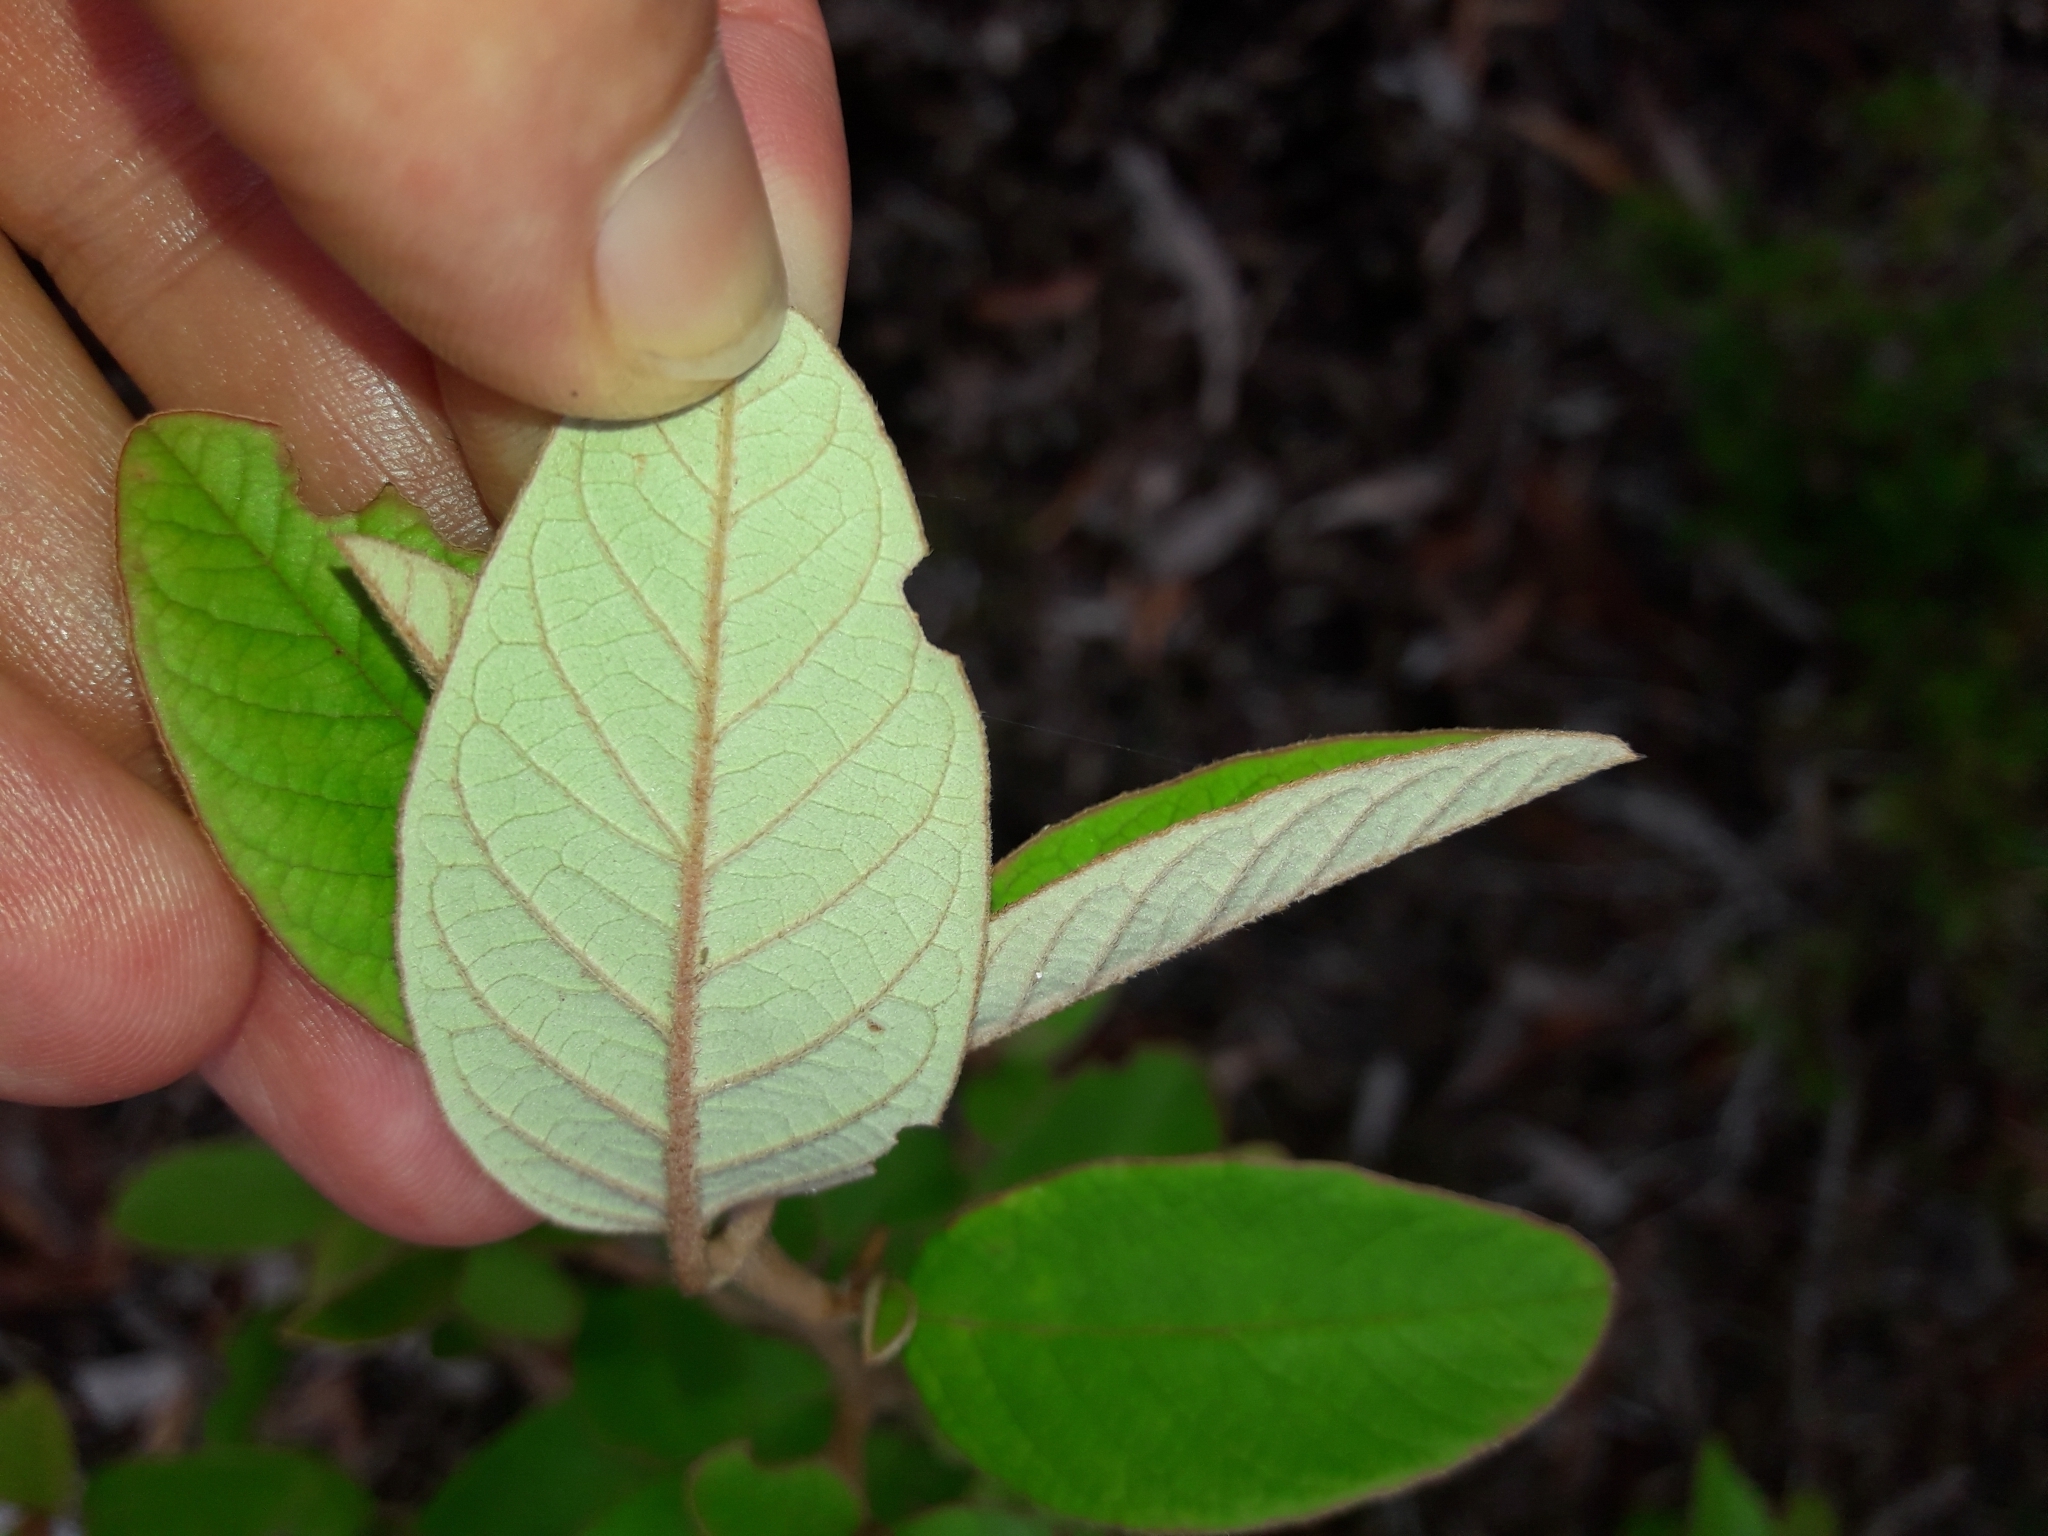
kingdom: Plantae
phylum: Tracheophyta
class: Magnoliopsida
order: Rosales
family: Rhamnaceae
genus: Pomaderris
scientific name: Pomaderris kumeraho
